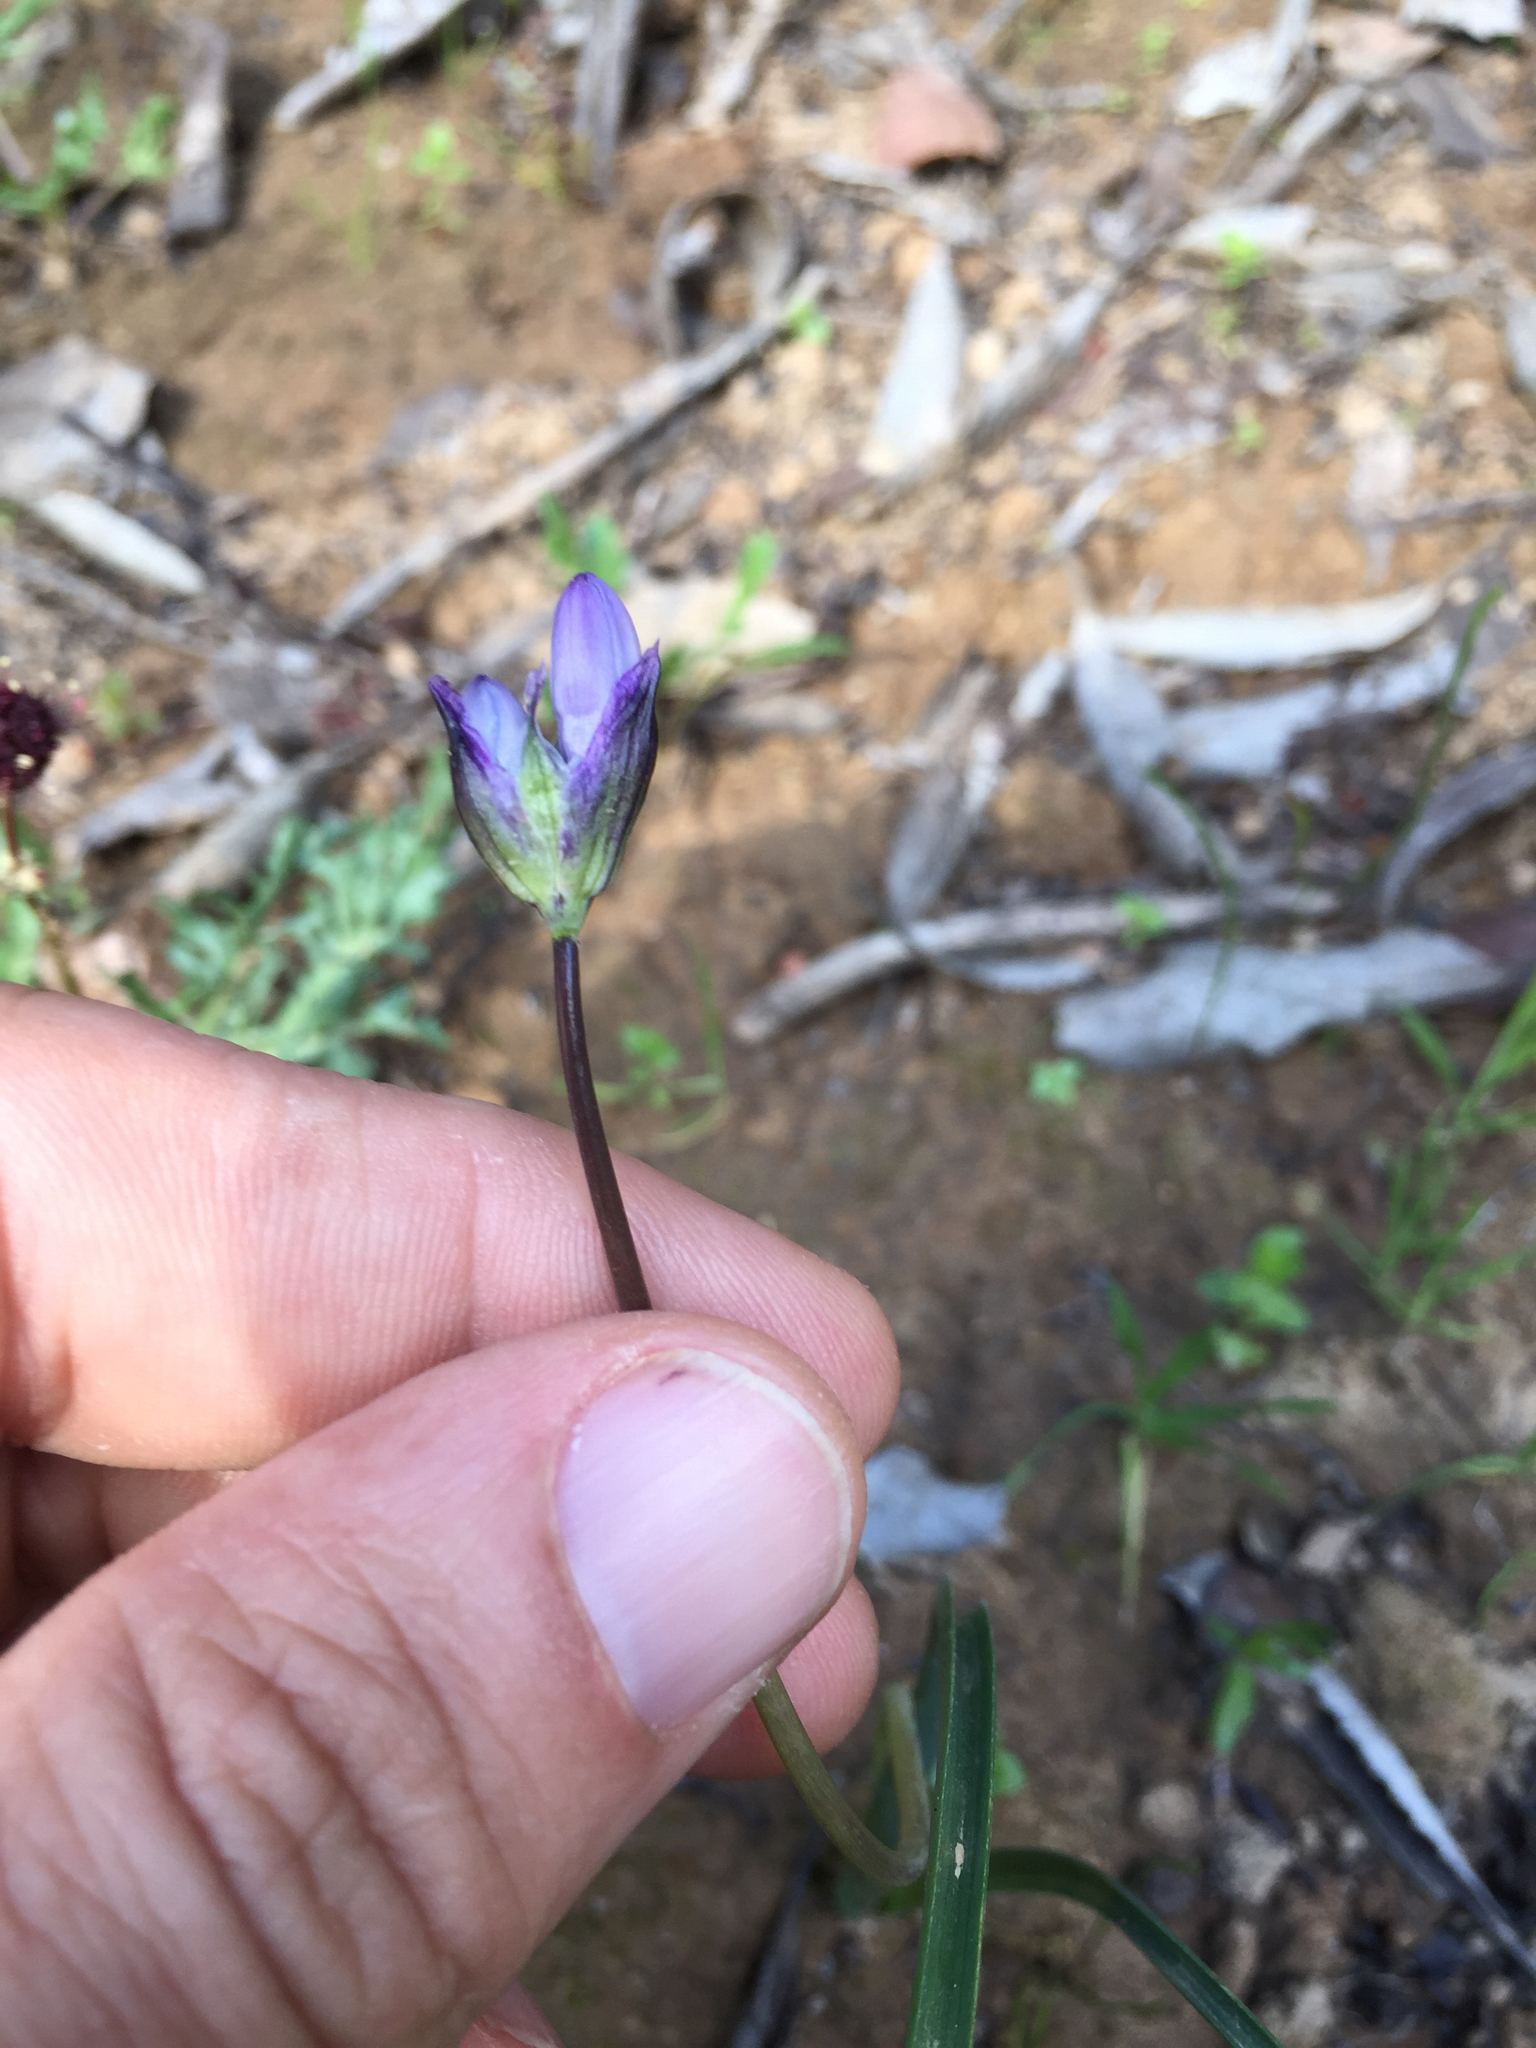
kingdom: Plantae
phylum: Tracheophyta
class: Liliopsida
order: Asparagales
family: Asparagaceae
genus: Dipterostemon
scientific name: Dipterostemon capitatus
